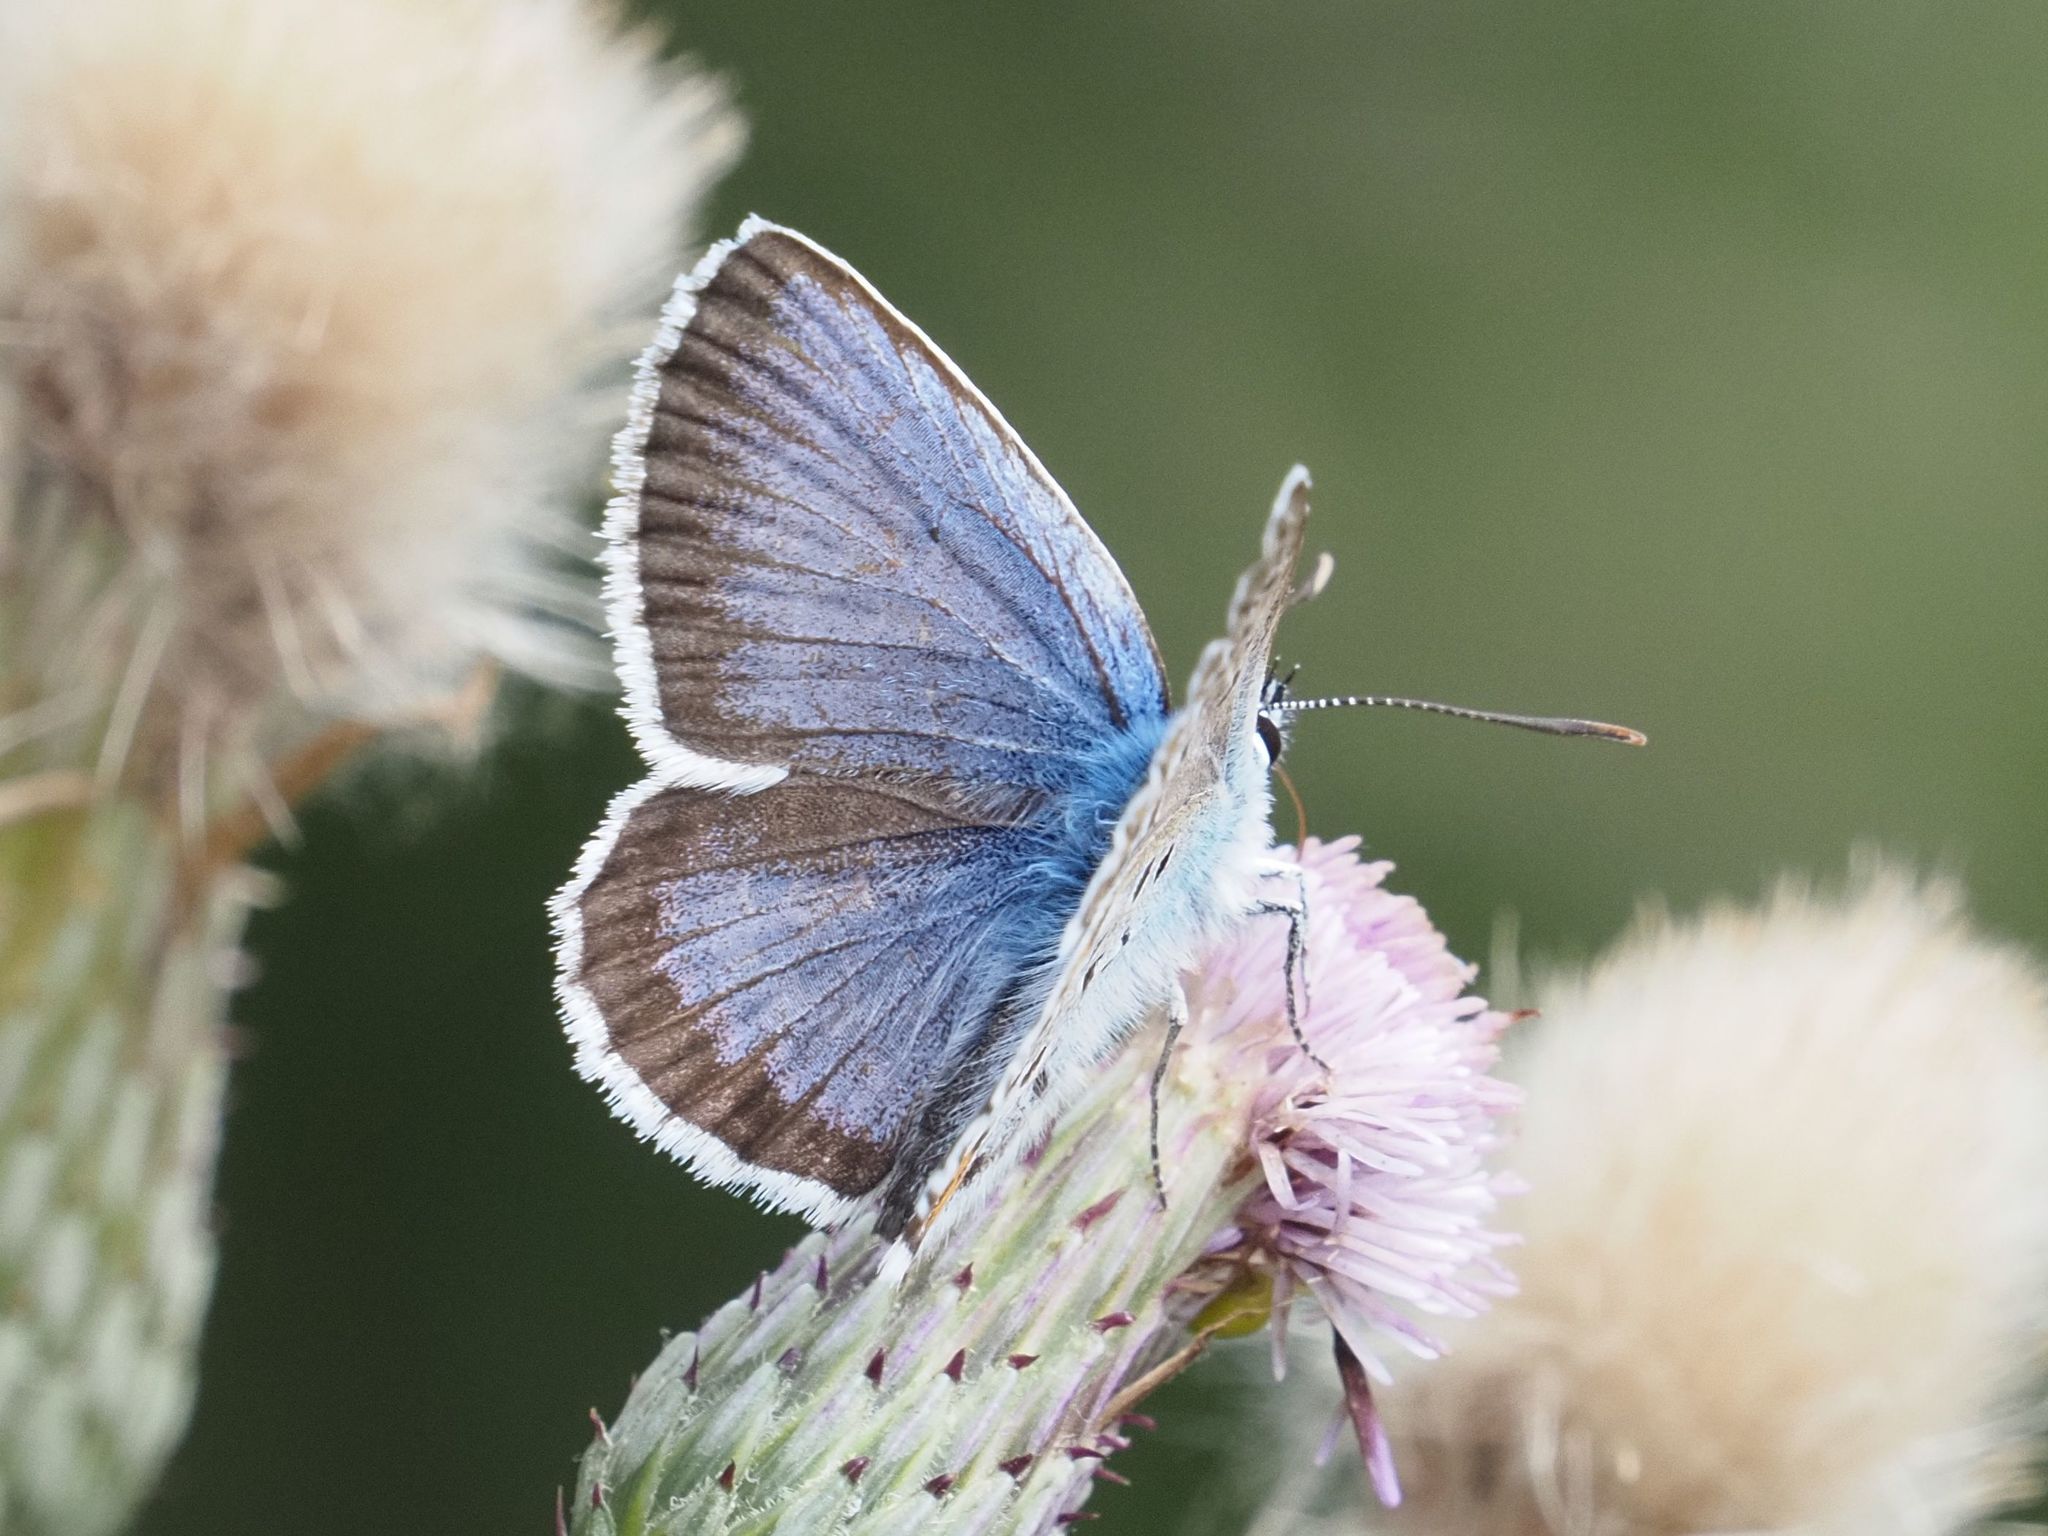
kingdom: Animalia
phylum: Arthropoda
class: Insecta
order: Lepidoptera
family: Lycaenidae
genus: Plebejus
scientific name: Plebejus argus
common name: Silver-studded blue
